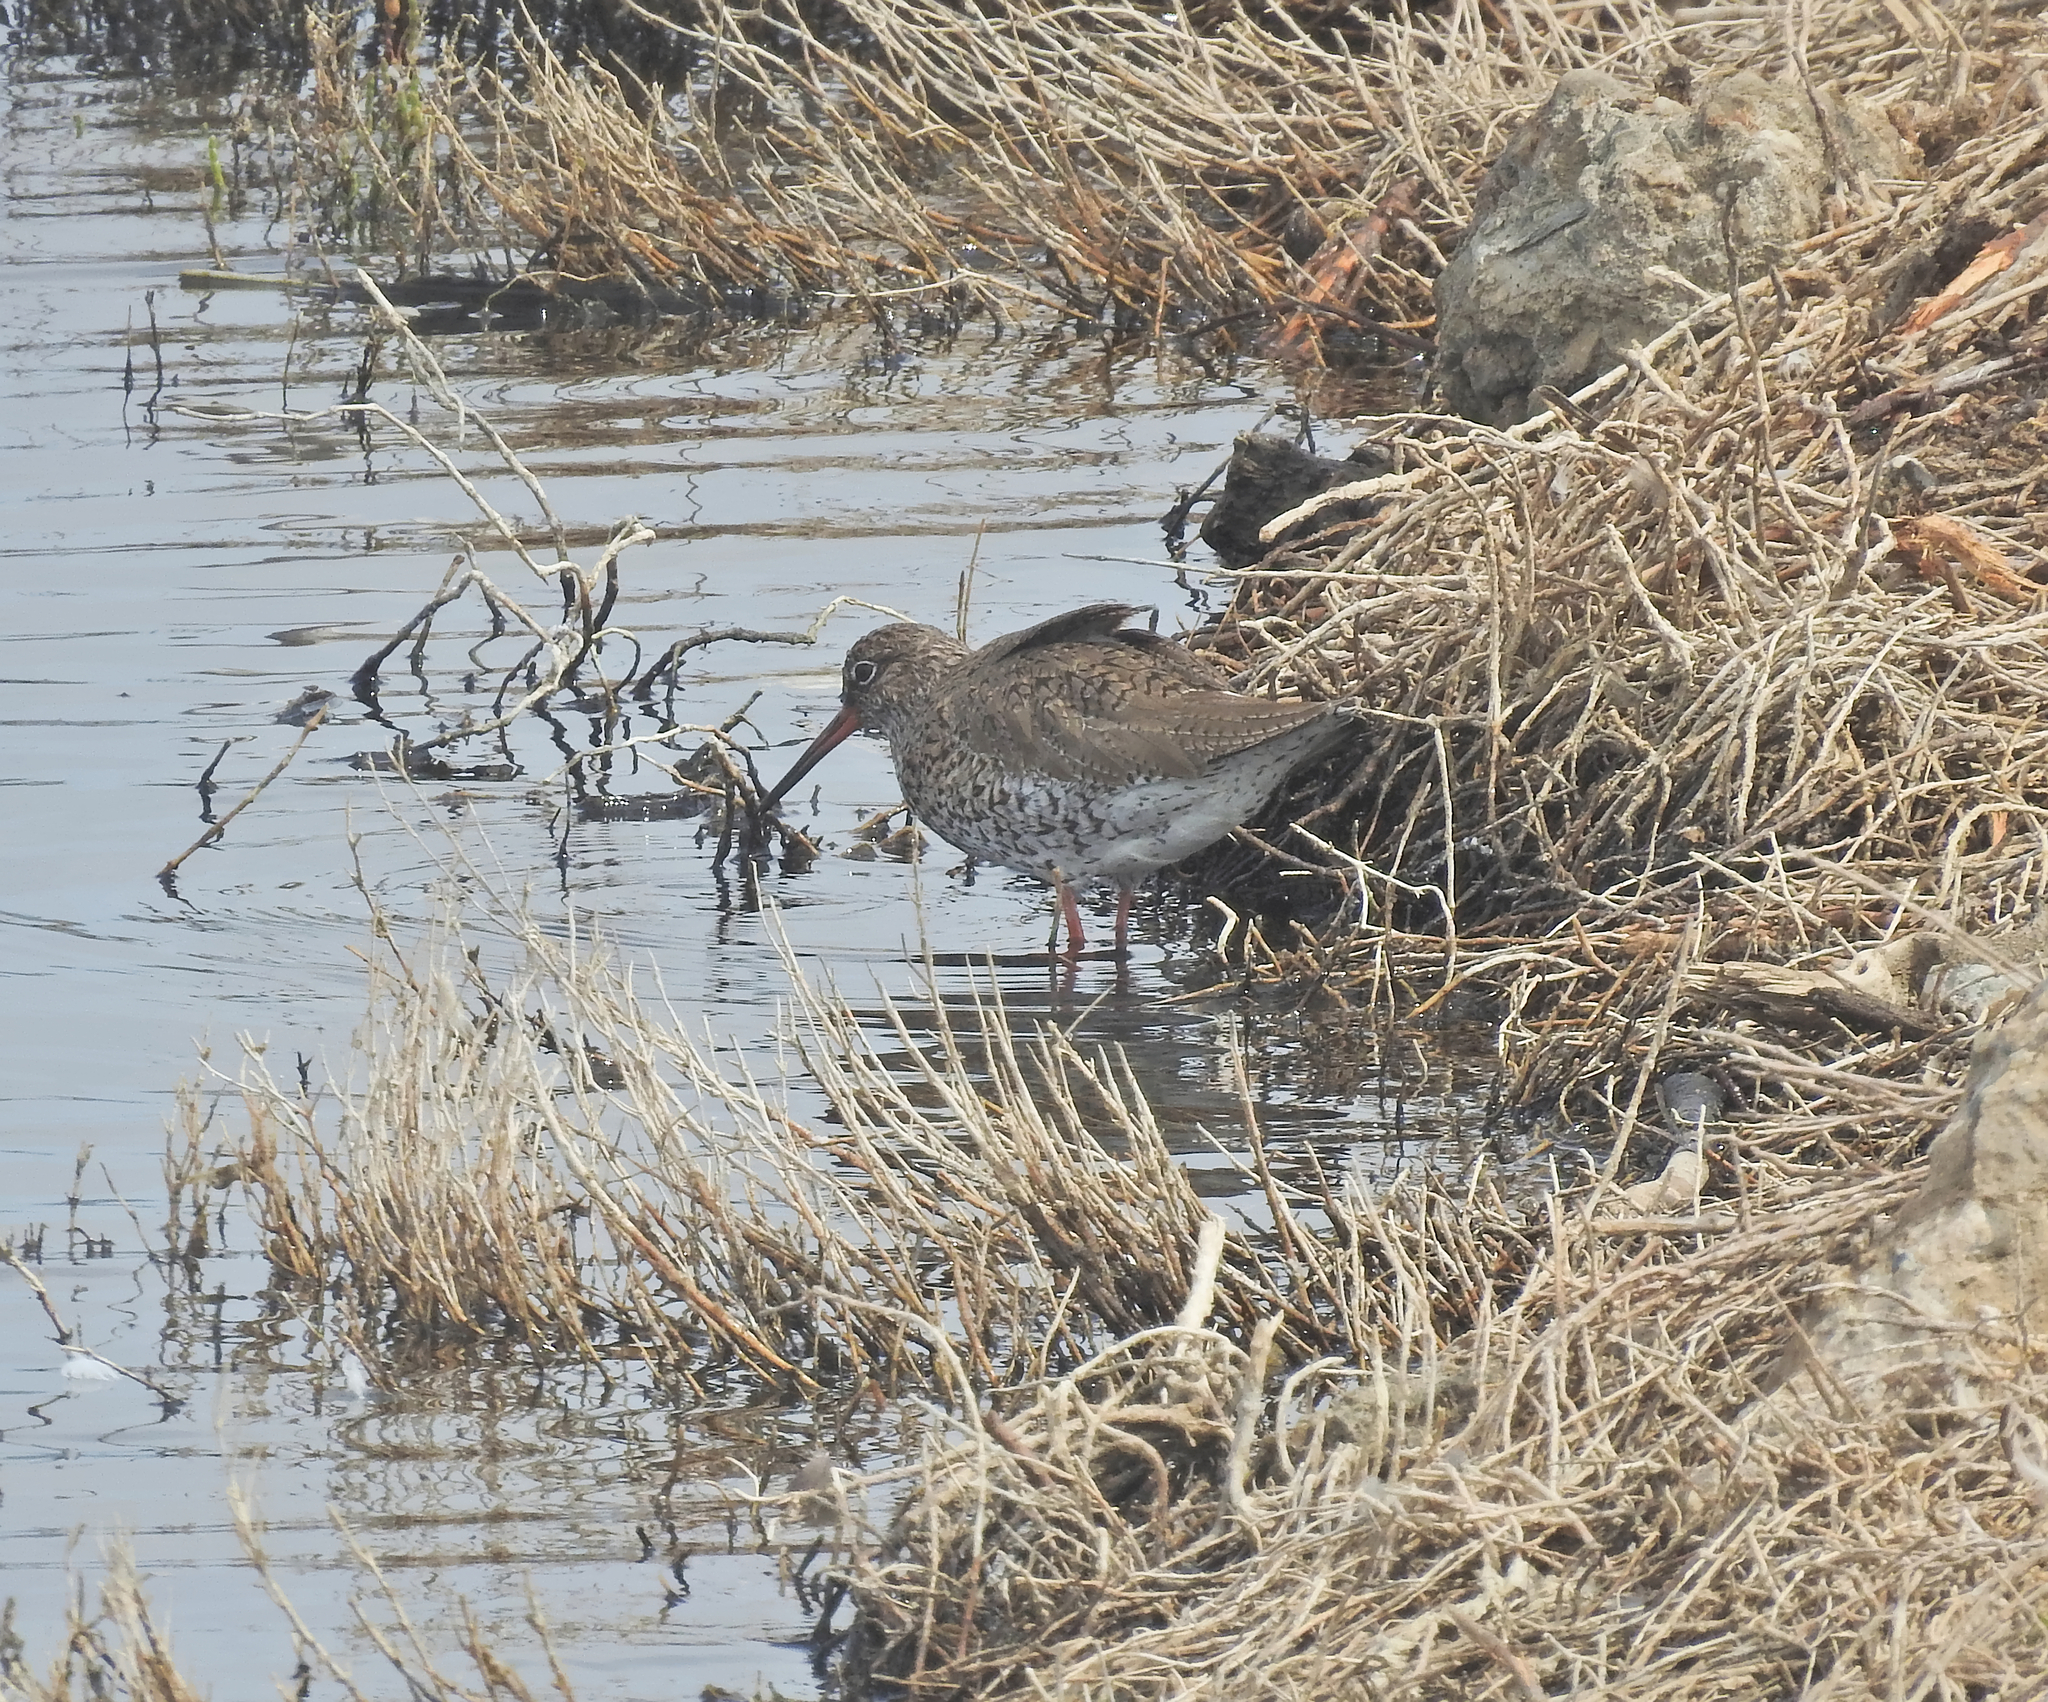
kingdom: Animalia
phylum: Chordata
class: Aves
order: Charadriiformes
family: Scolopacidae
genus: Tringa
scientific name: Tringa totanus
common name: Common redshank
